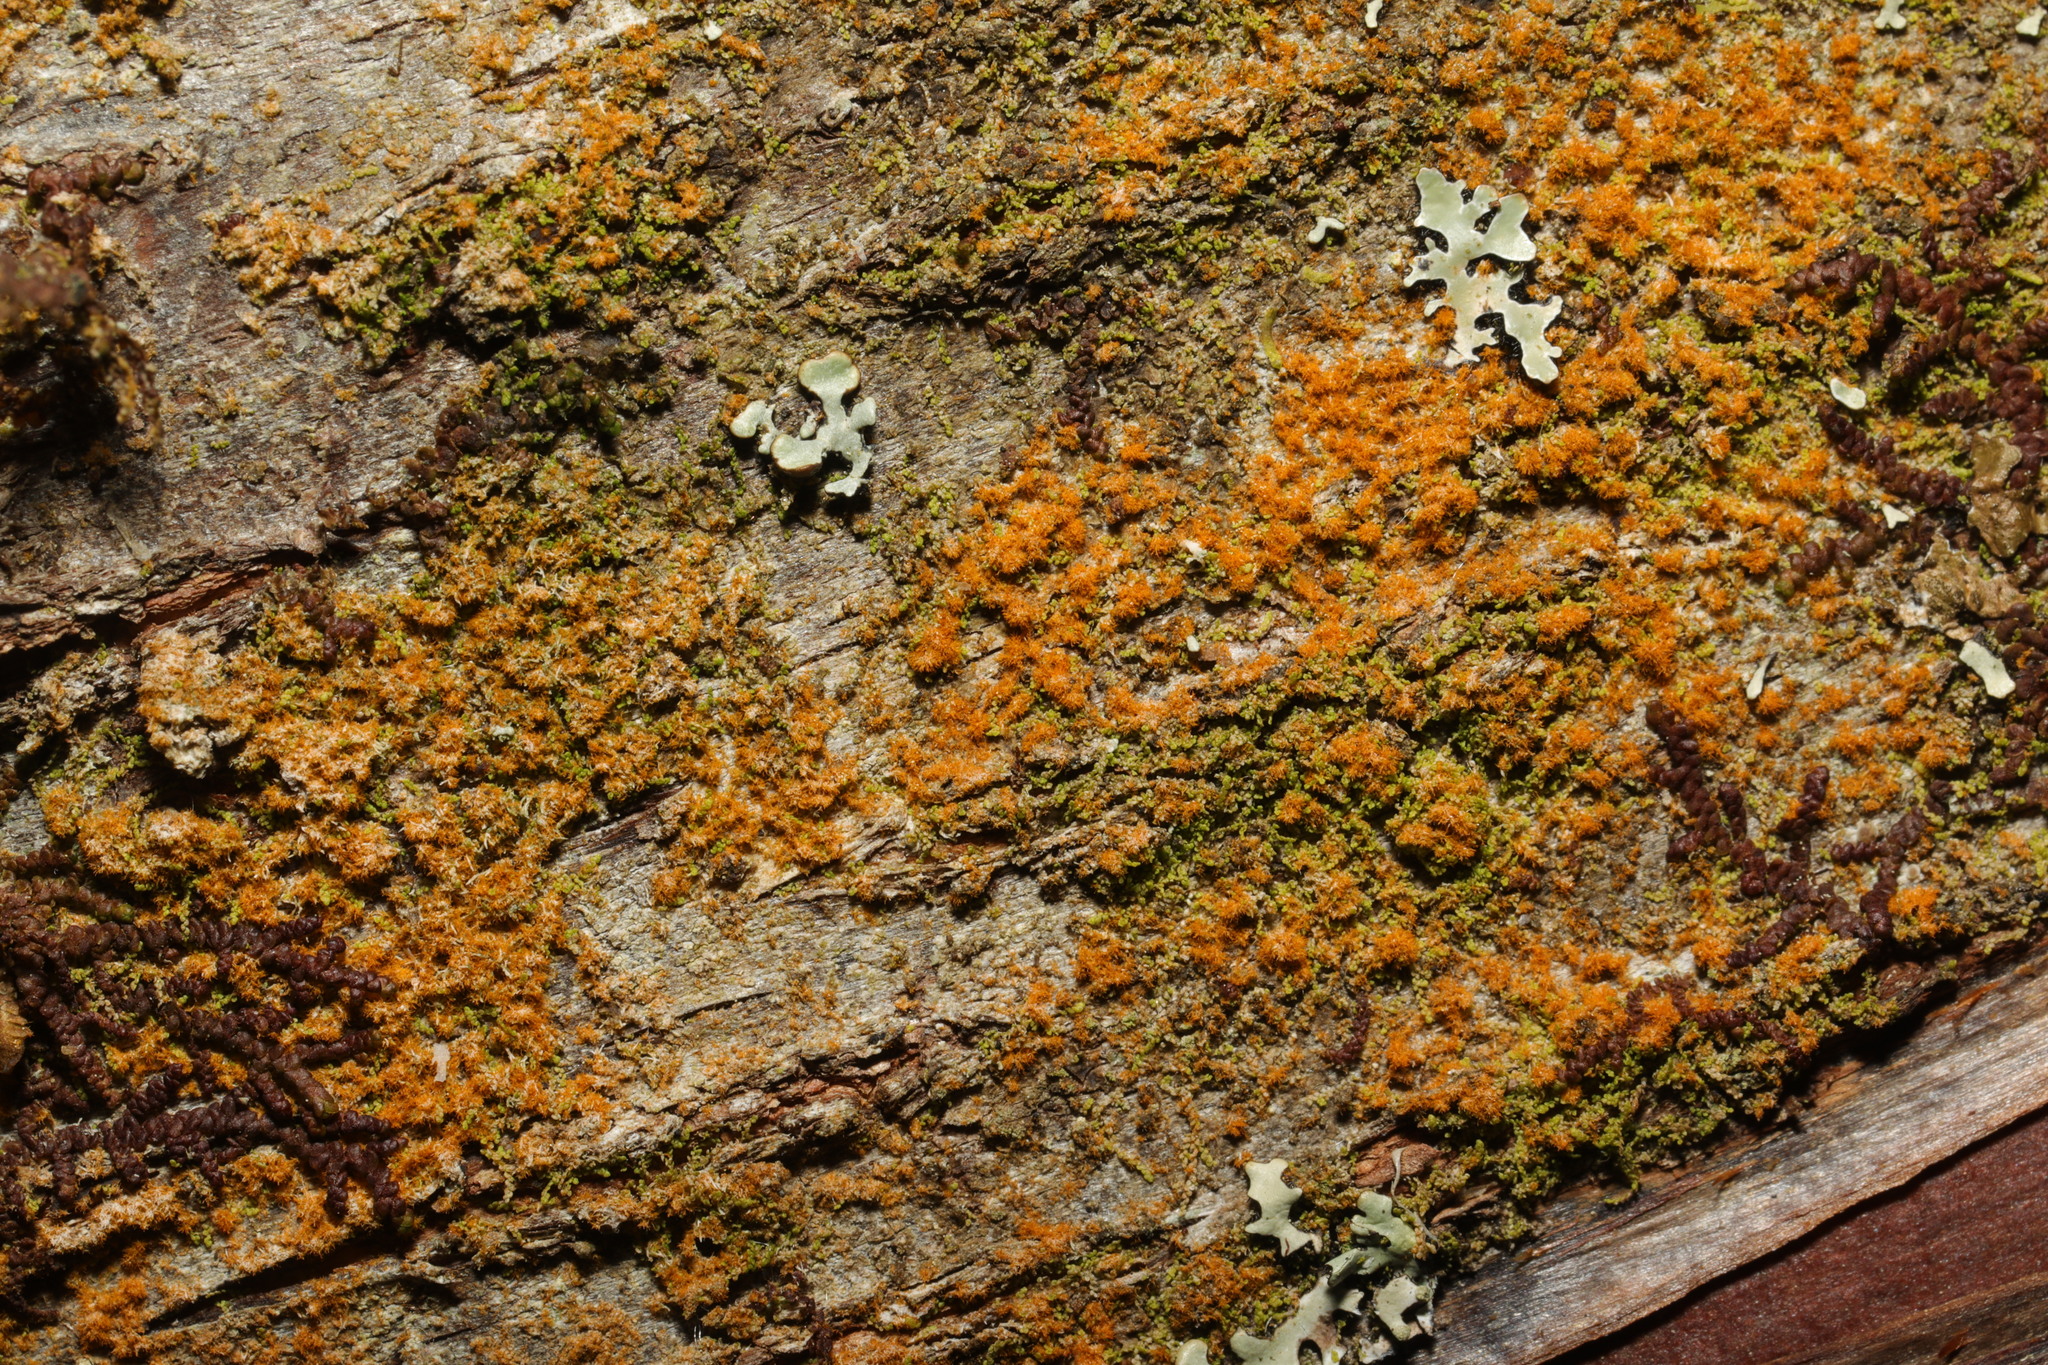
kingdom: Plantae
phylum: Chlorophyta
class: Ulvophyceae
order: Trentepohliales
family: Trentepohliaceae
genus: Trentepohlia
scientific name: Trentepohlia
